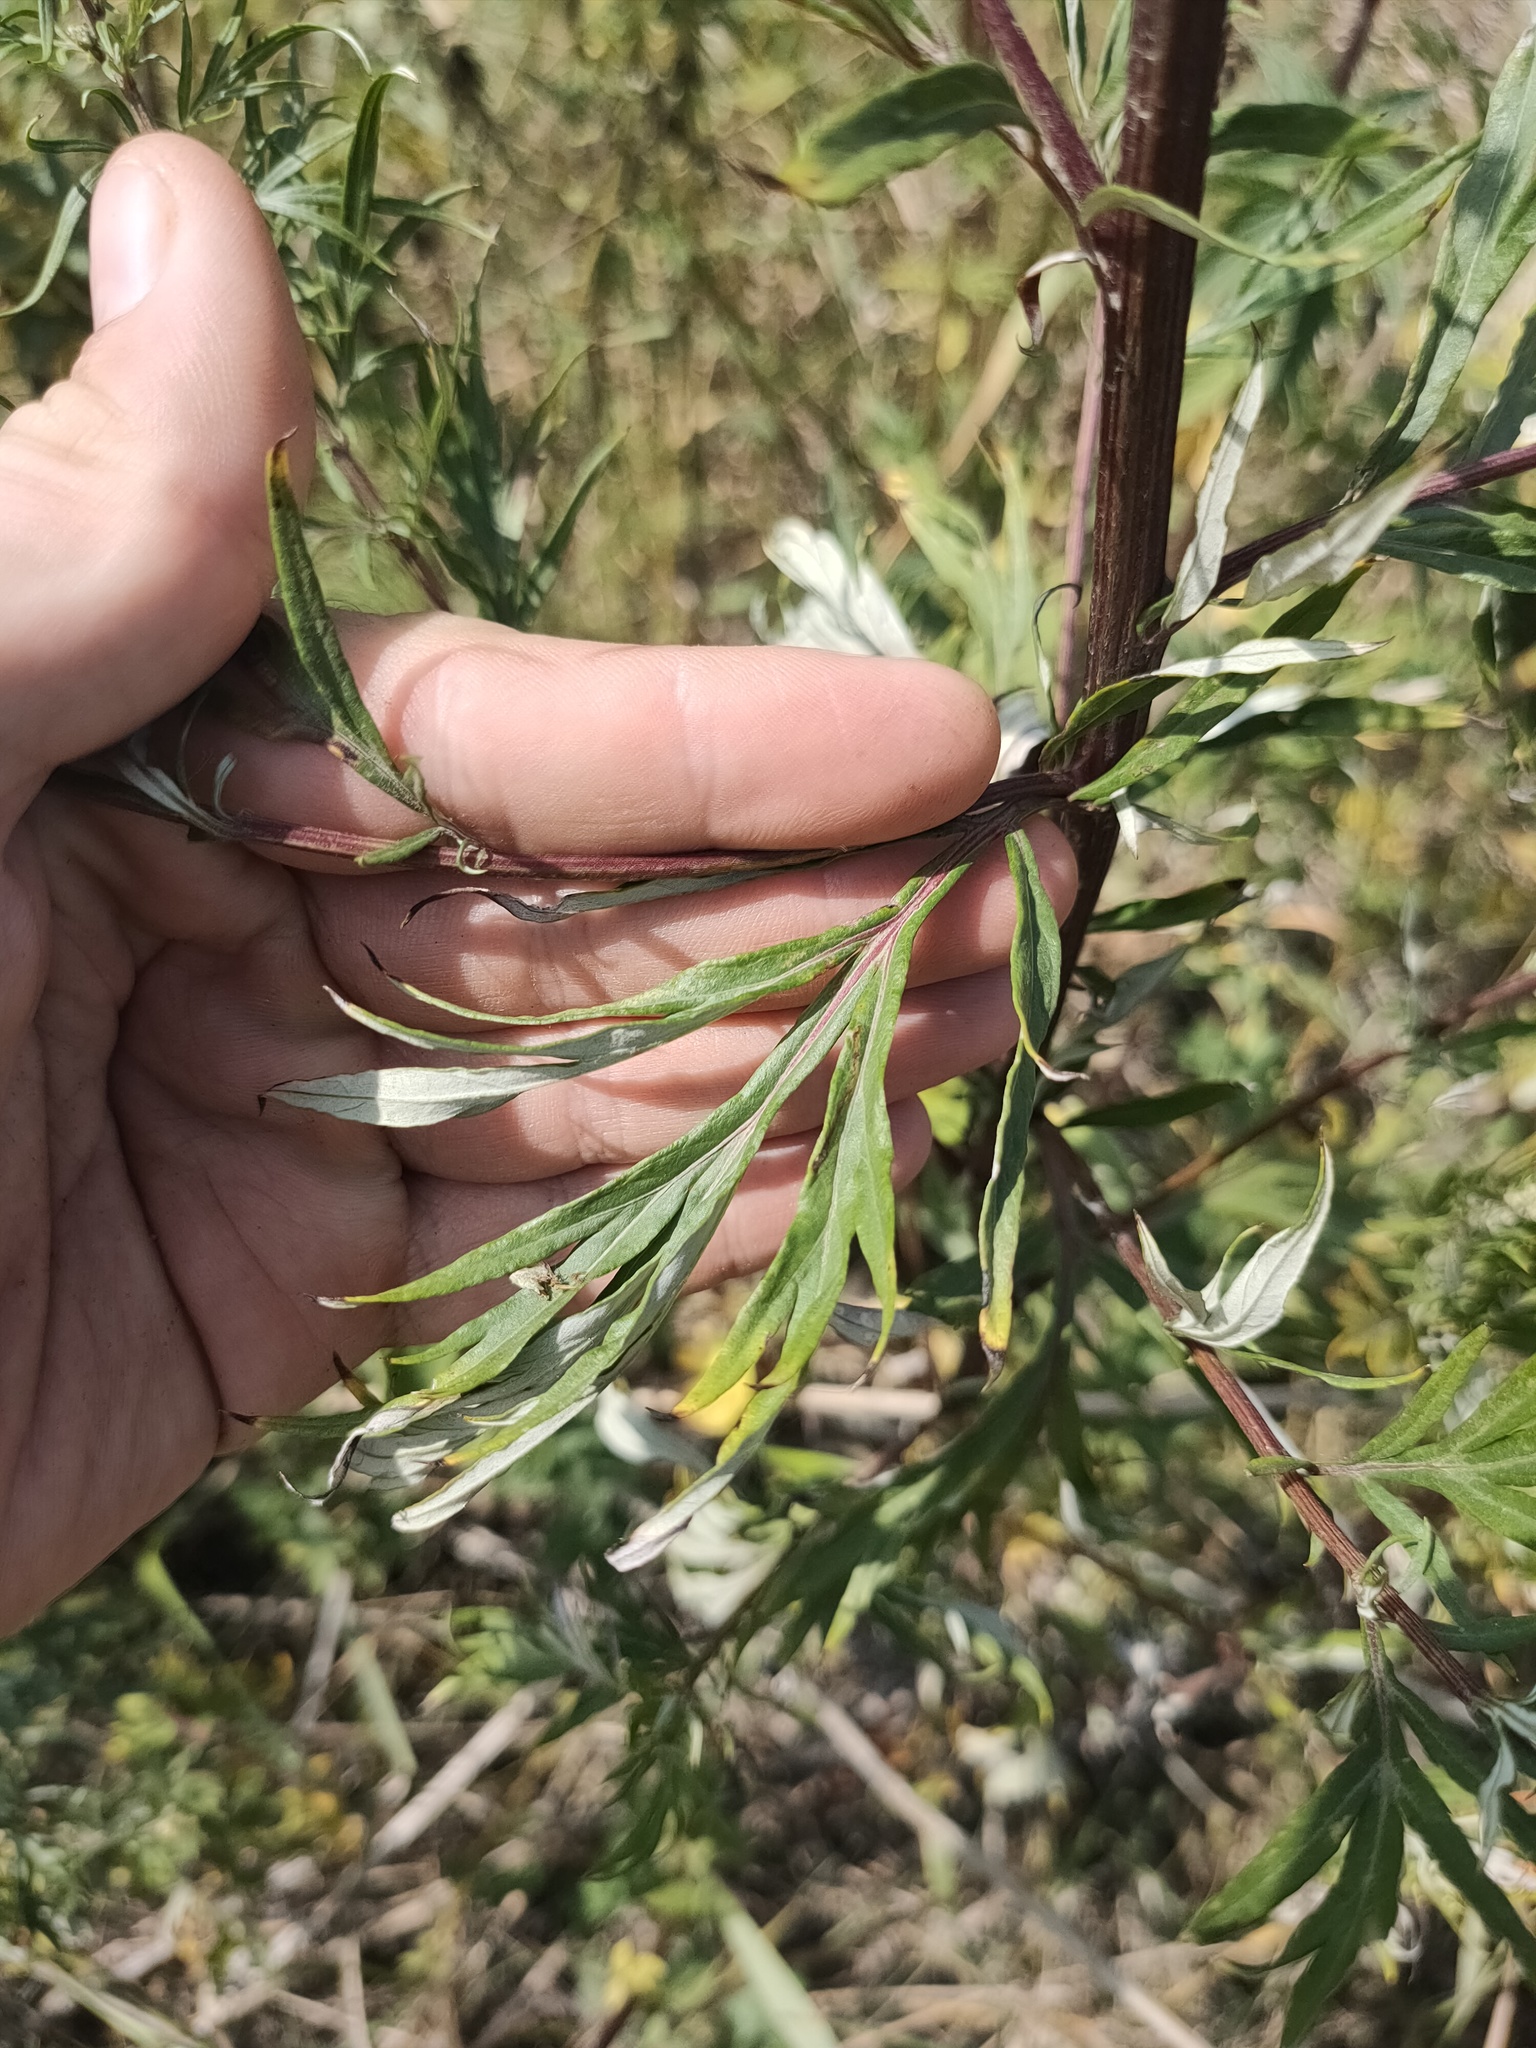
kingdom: Plantae
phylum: Tracheophyta
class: Magnoliopsida
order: Asterales
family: Asteraceae
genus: Artemisia
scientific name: Artemisia vulgaris
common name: Mugwort
